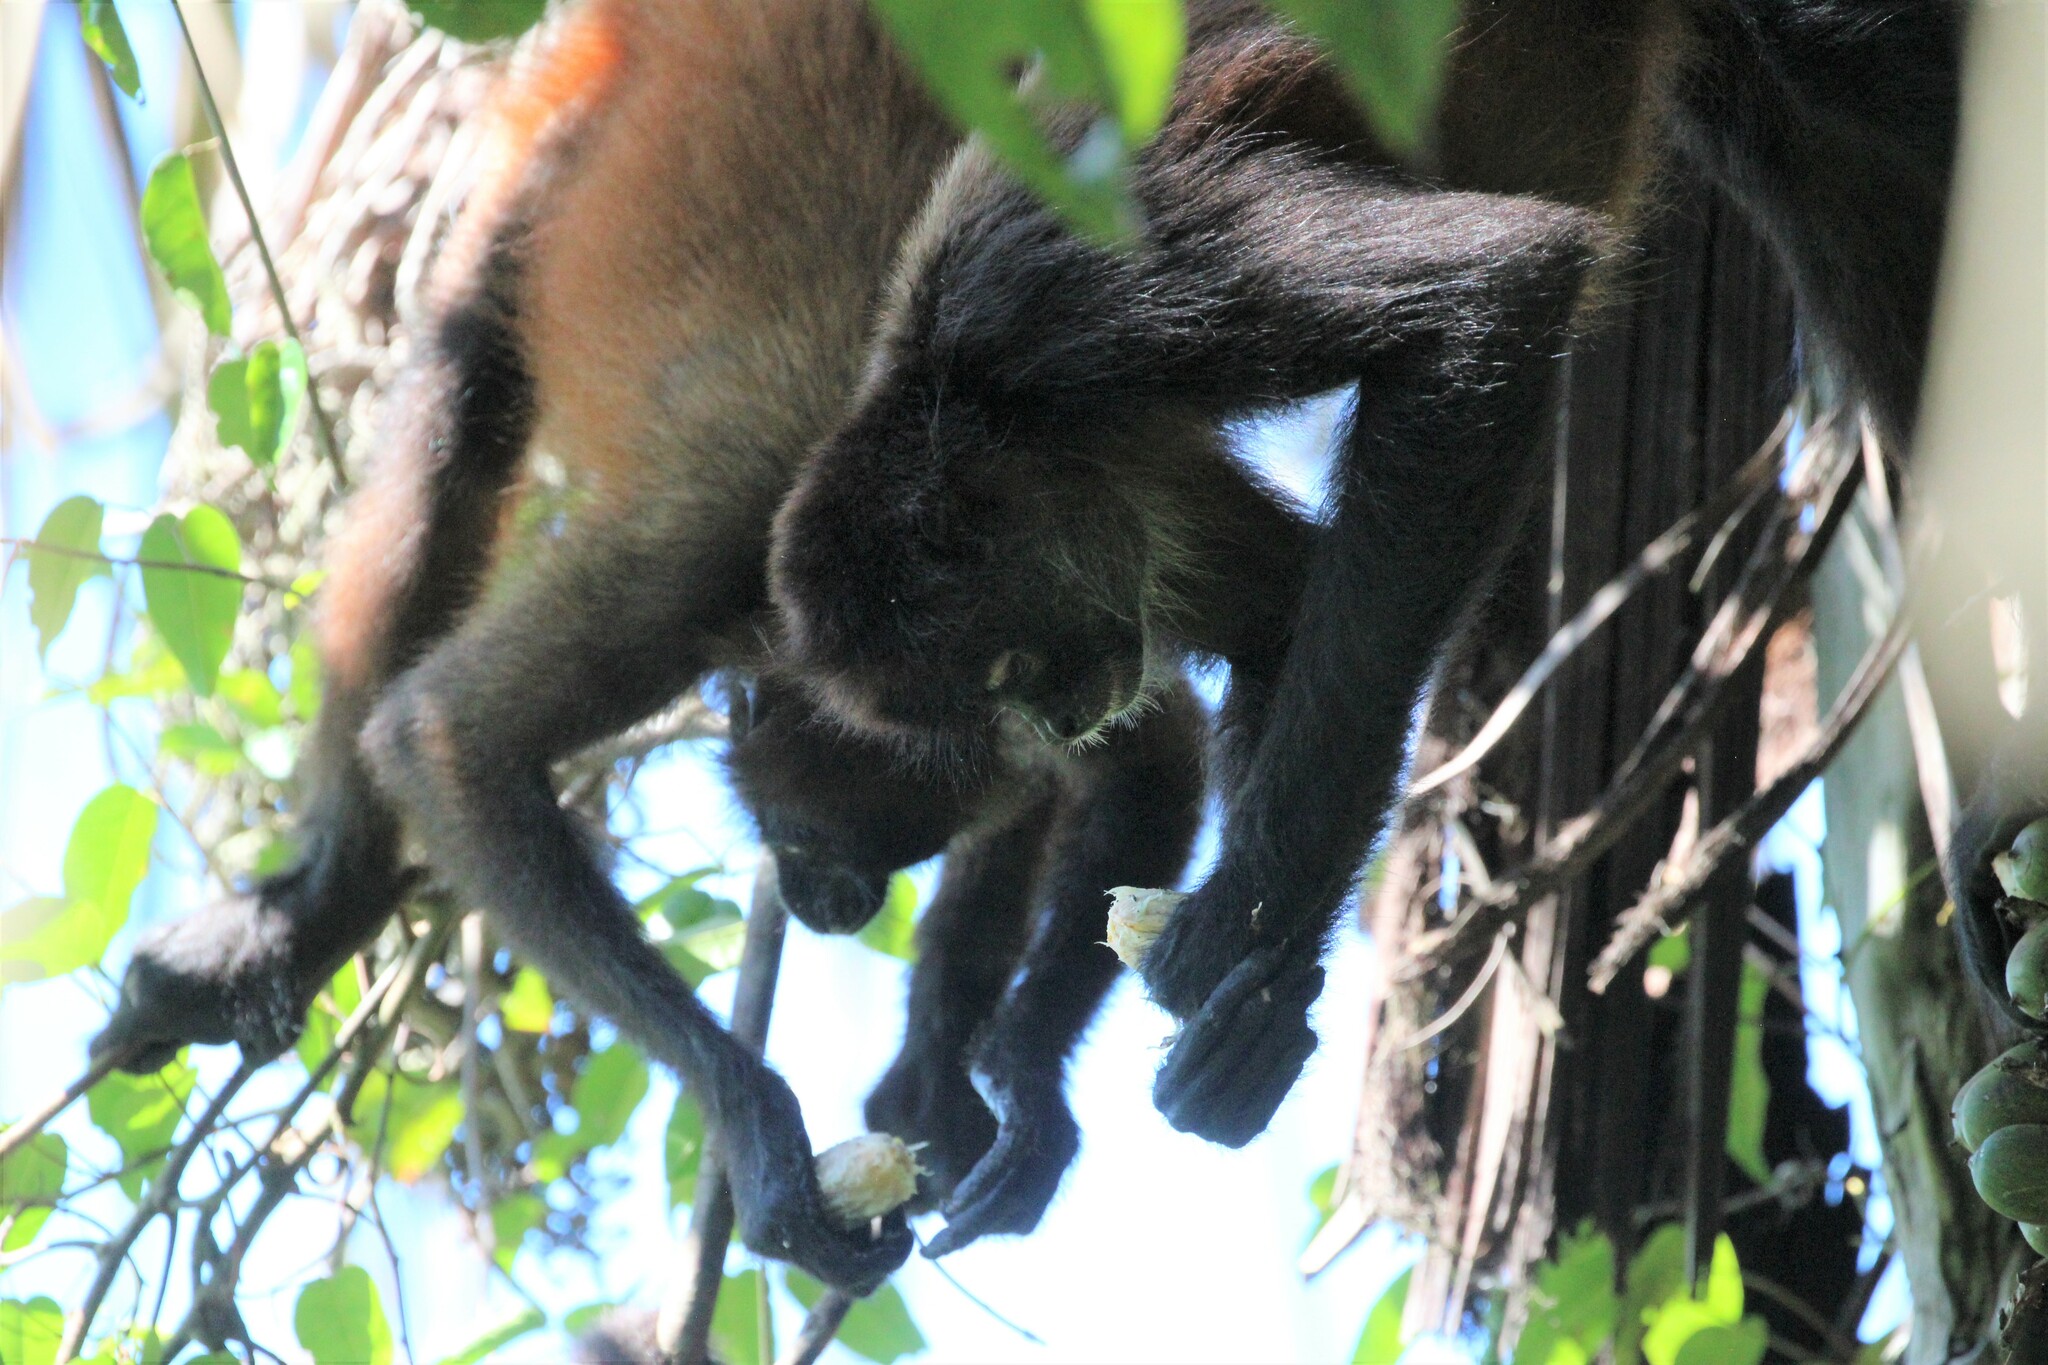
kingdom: Animalia
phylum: Chordata
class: Mammalia
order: Primates
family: Atelidae
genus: Ateles
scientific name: Ateles geoffroyi
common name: Black-handed spider monkey
